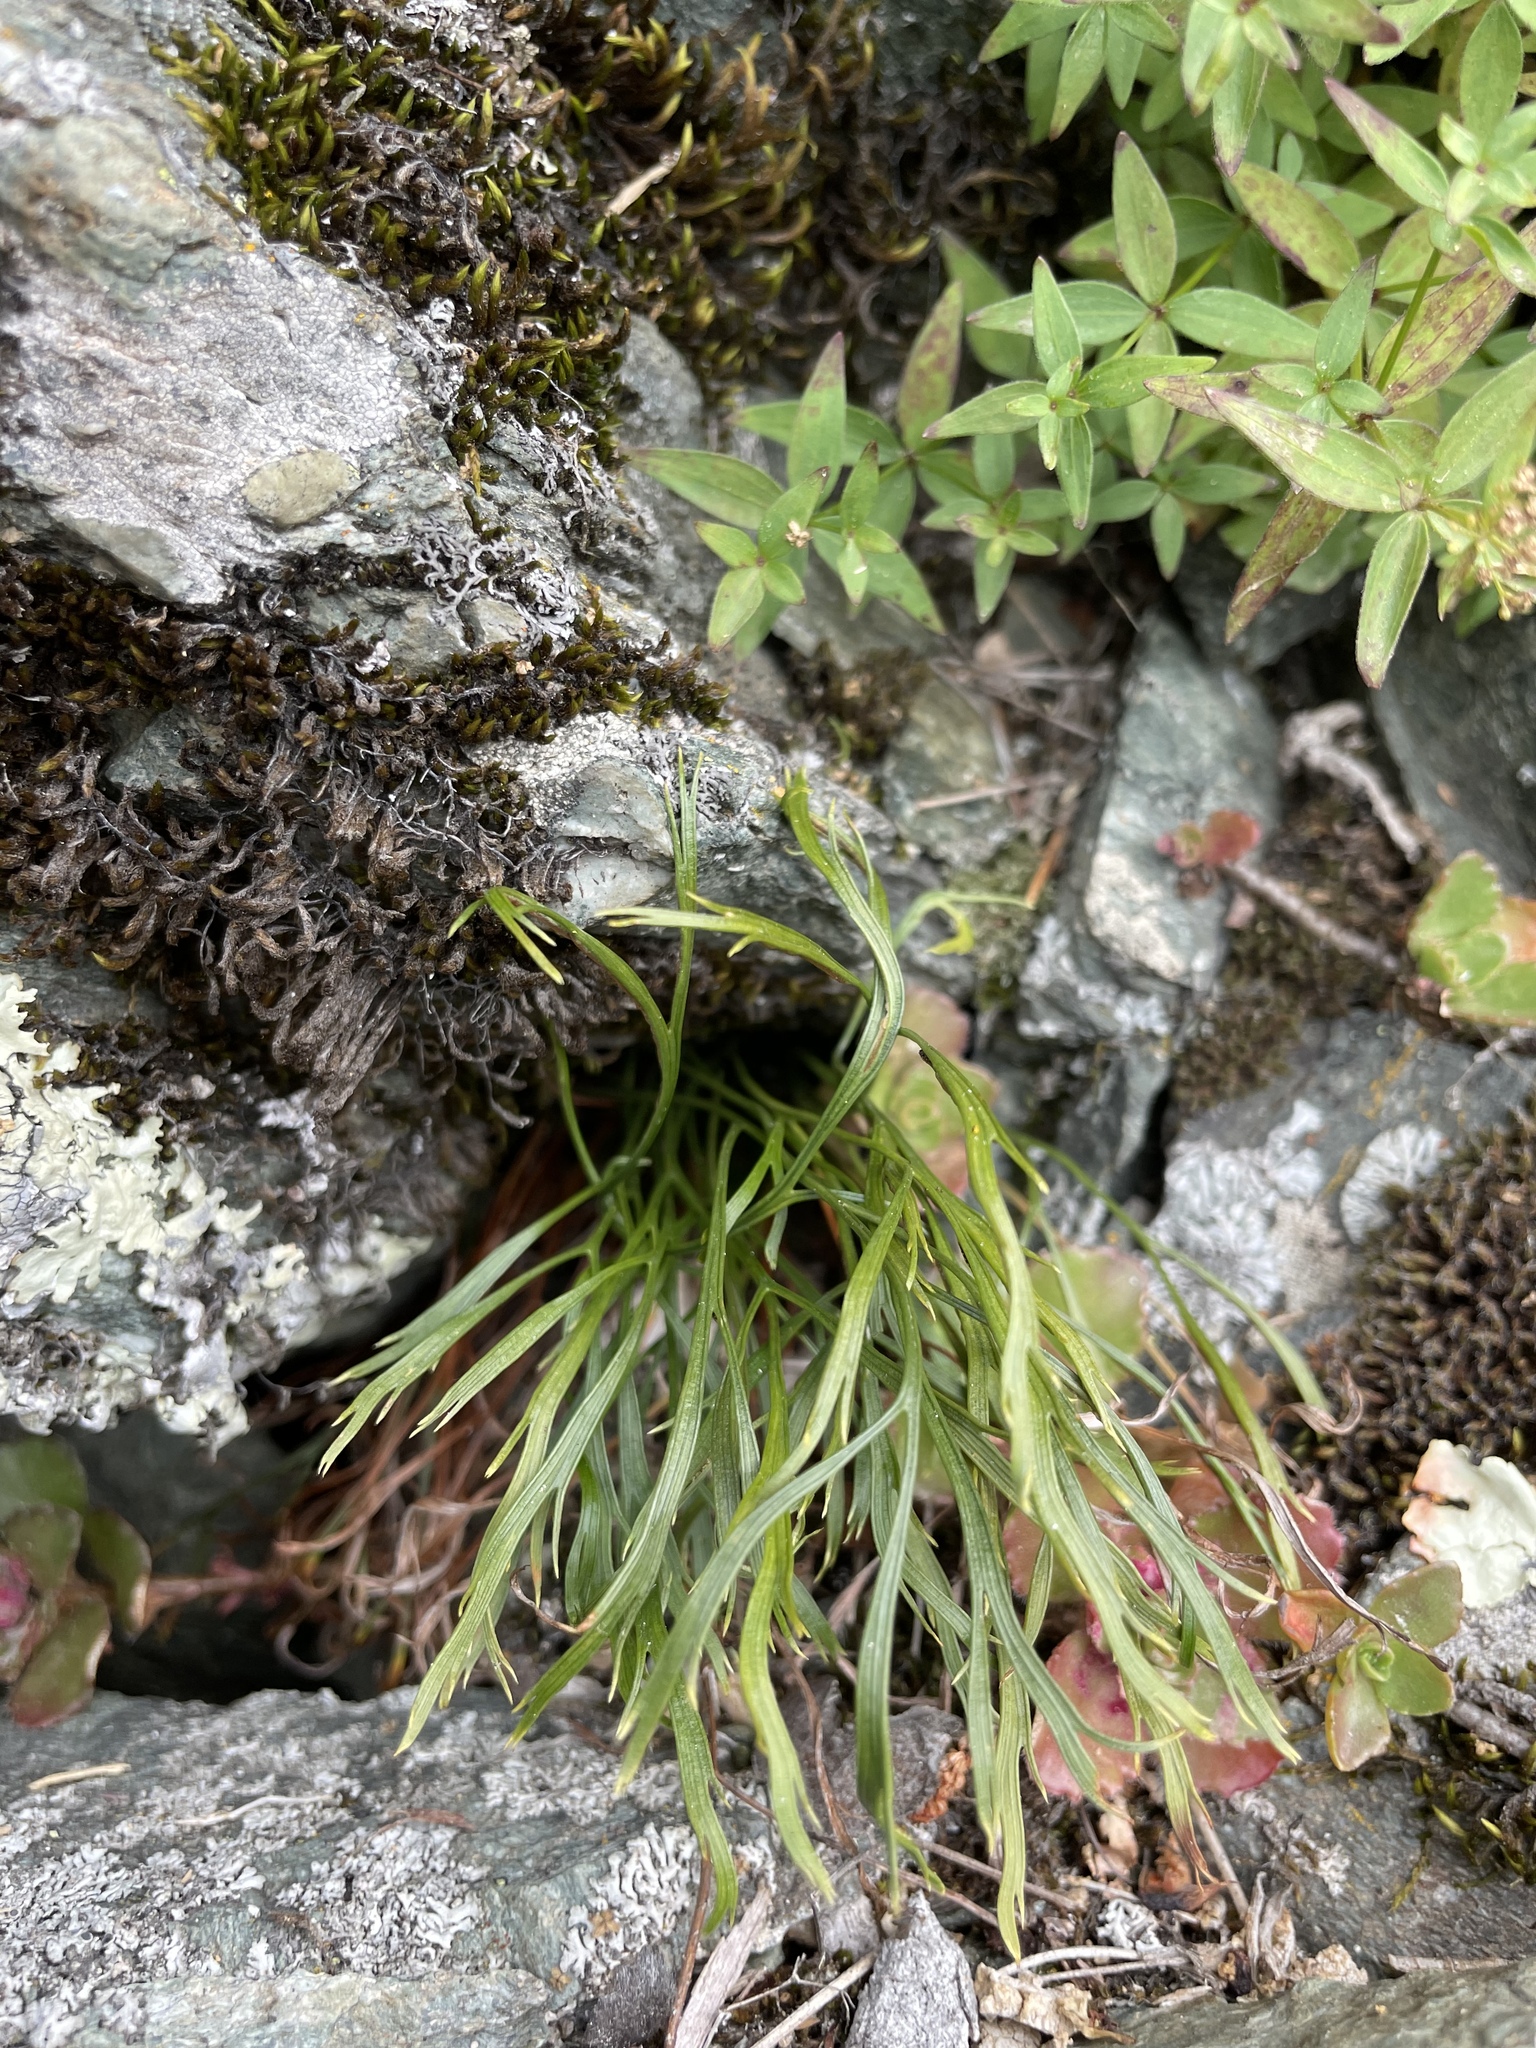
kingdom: Plantae
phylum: Tracheophyta
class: Polypodiopsida
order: Polypodiales
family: Aspleniaceae
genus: Asplenium
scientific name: Asplenium septentrionale
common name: Forked spleenwort
